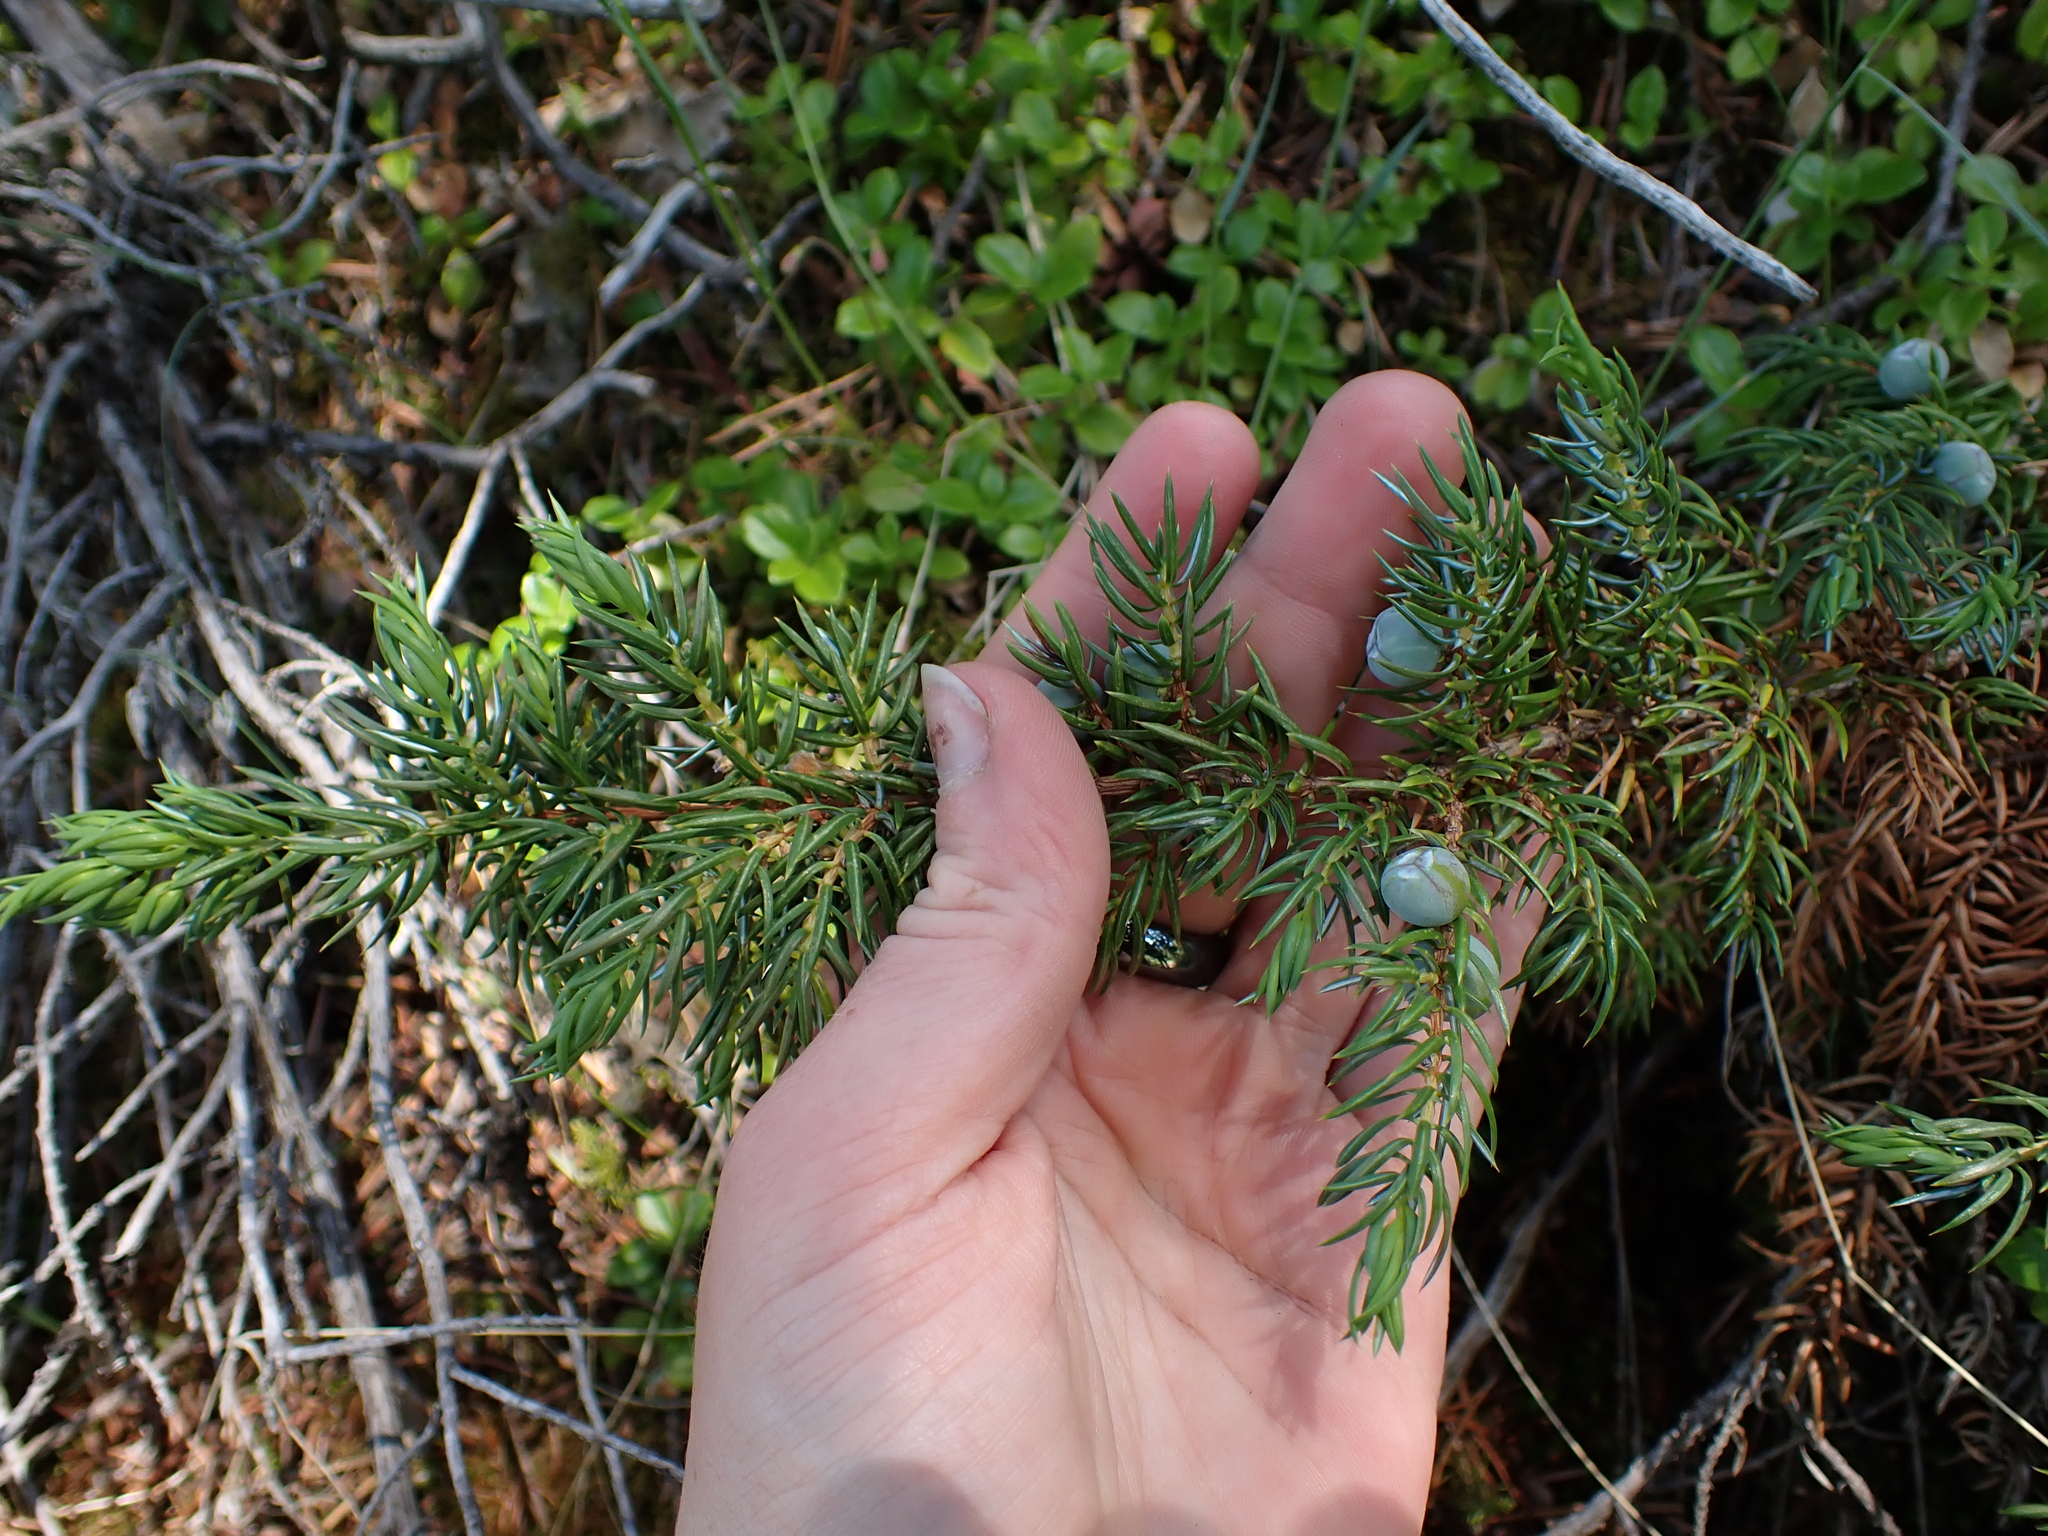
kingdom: Plantae
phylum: Tracheophyta
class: Pinopsida
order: Pinales
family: Cupressaceae
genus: Juniperus
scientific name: Juniperus communis
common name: Common juniper
